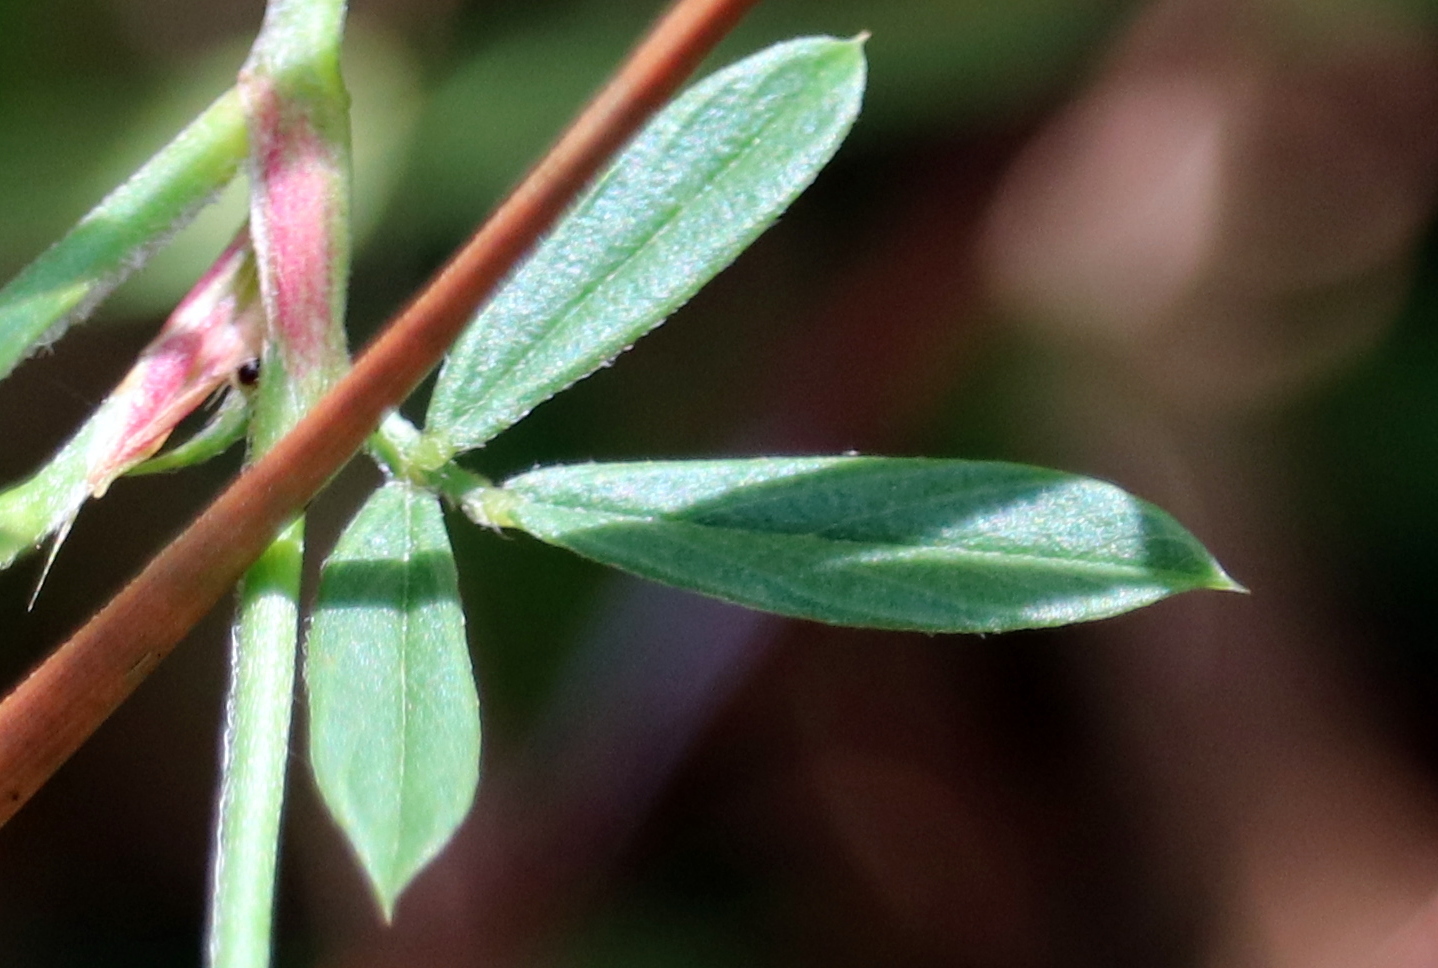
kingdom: Plantae
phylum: Tracheophyta
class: Magnoliopsida
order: Fabales
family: Fabaceae
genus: Stylosanthes
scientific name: Stylosanthes biflora
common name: Two-flower pencil-flower
